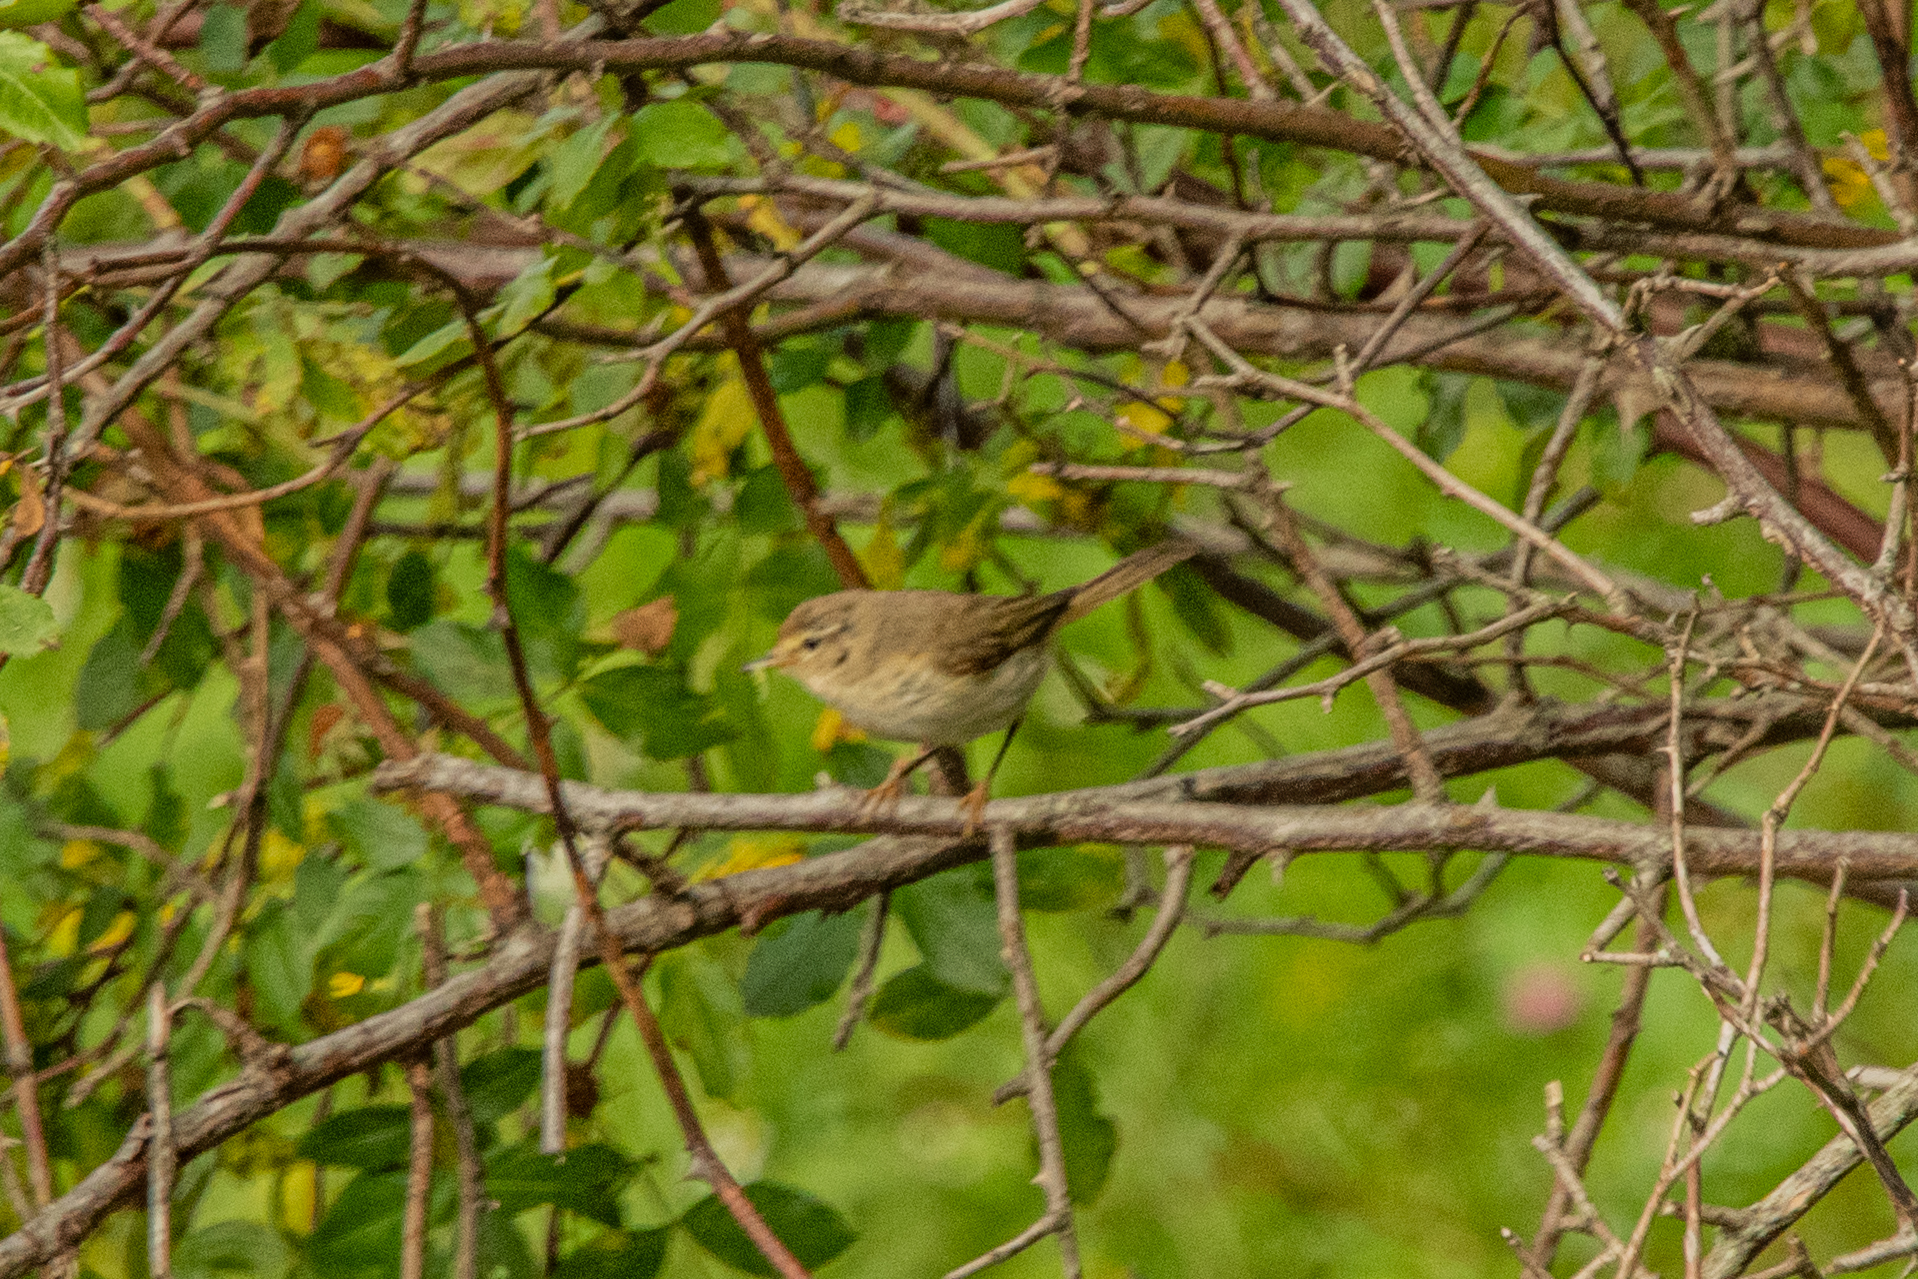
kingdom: Animalia
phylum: Chordata
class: Aves
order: Passeriformes
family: Phylloscopidae
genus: Phylloscopus
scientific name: Phylloscopus collybita
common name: Common chiffchaff
